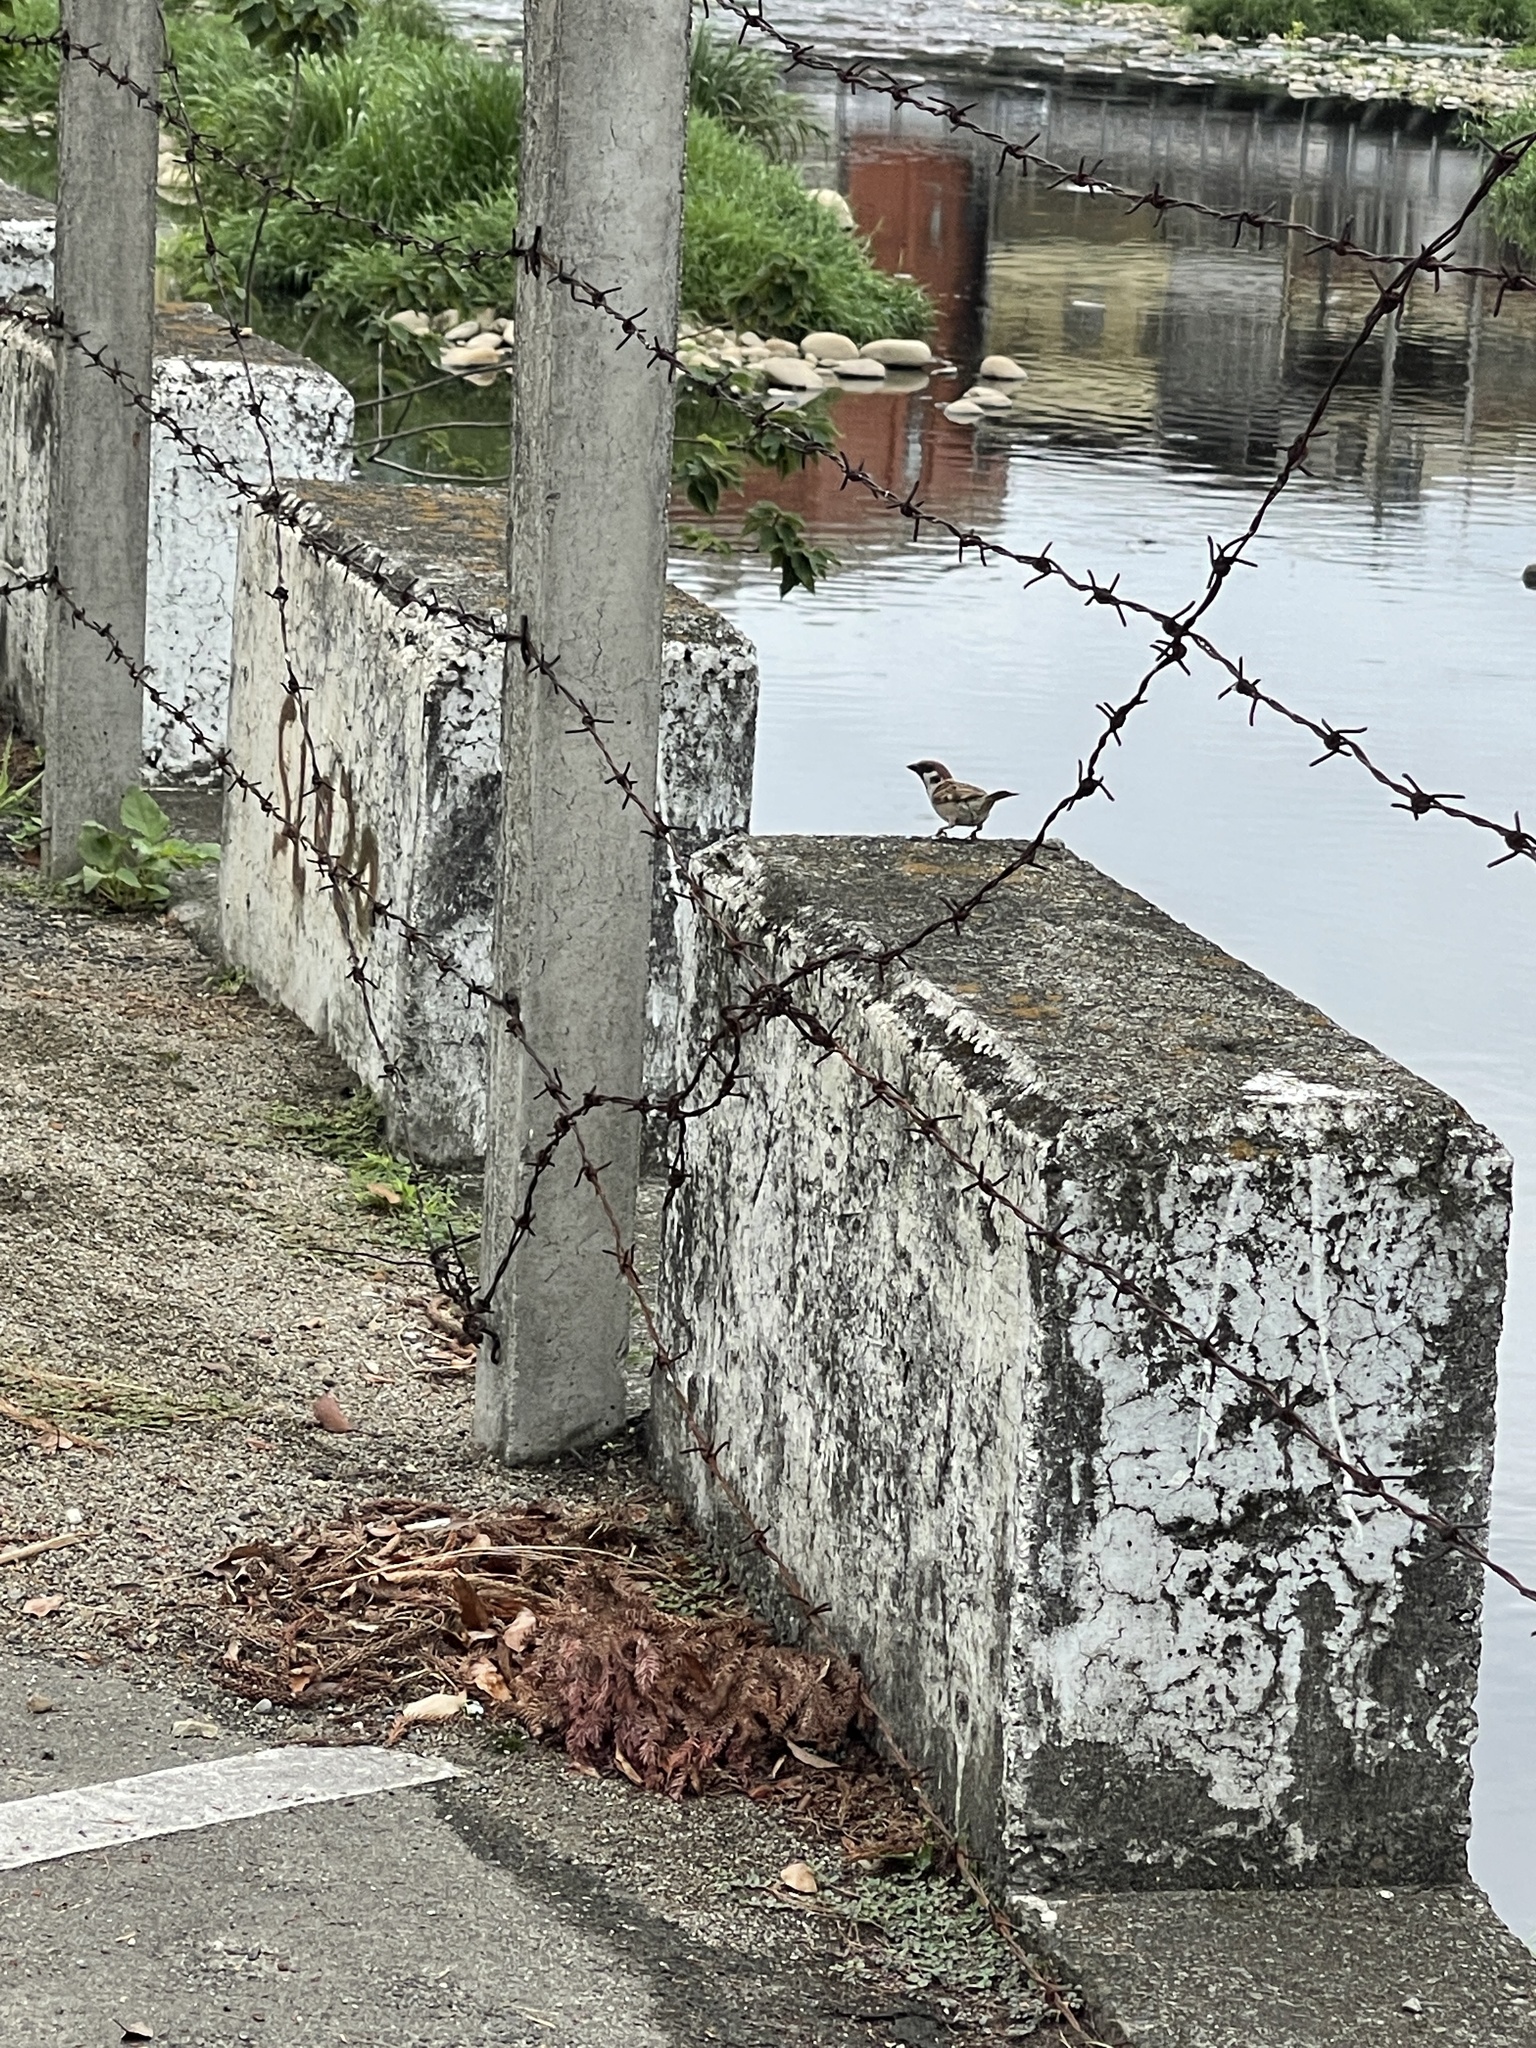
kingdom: Animalia
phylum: Chordata
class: Aves
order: Passeriformes
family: Passeridae
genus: Passer
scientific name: Passer montanus
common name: Eurasian tree sparrow
